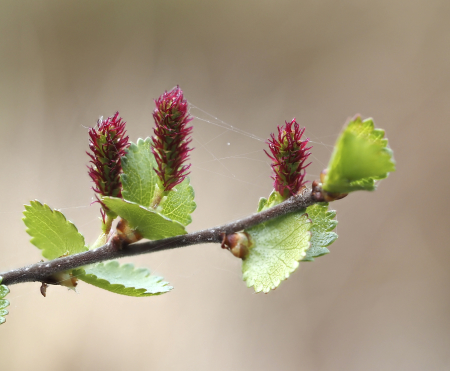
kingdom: Plantae
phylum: Tracheophyta
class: Magnoliopsida
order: Fagales
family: Betulaceae
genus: Betula
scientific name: Betula nana
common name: Arctic dwarf birch
